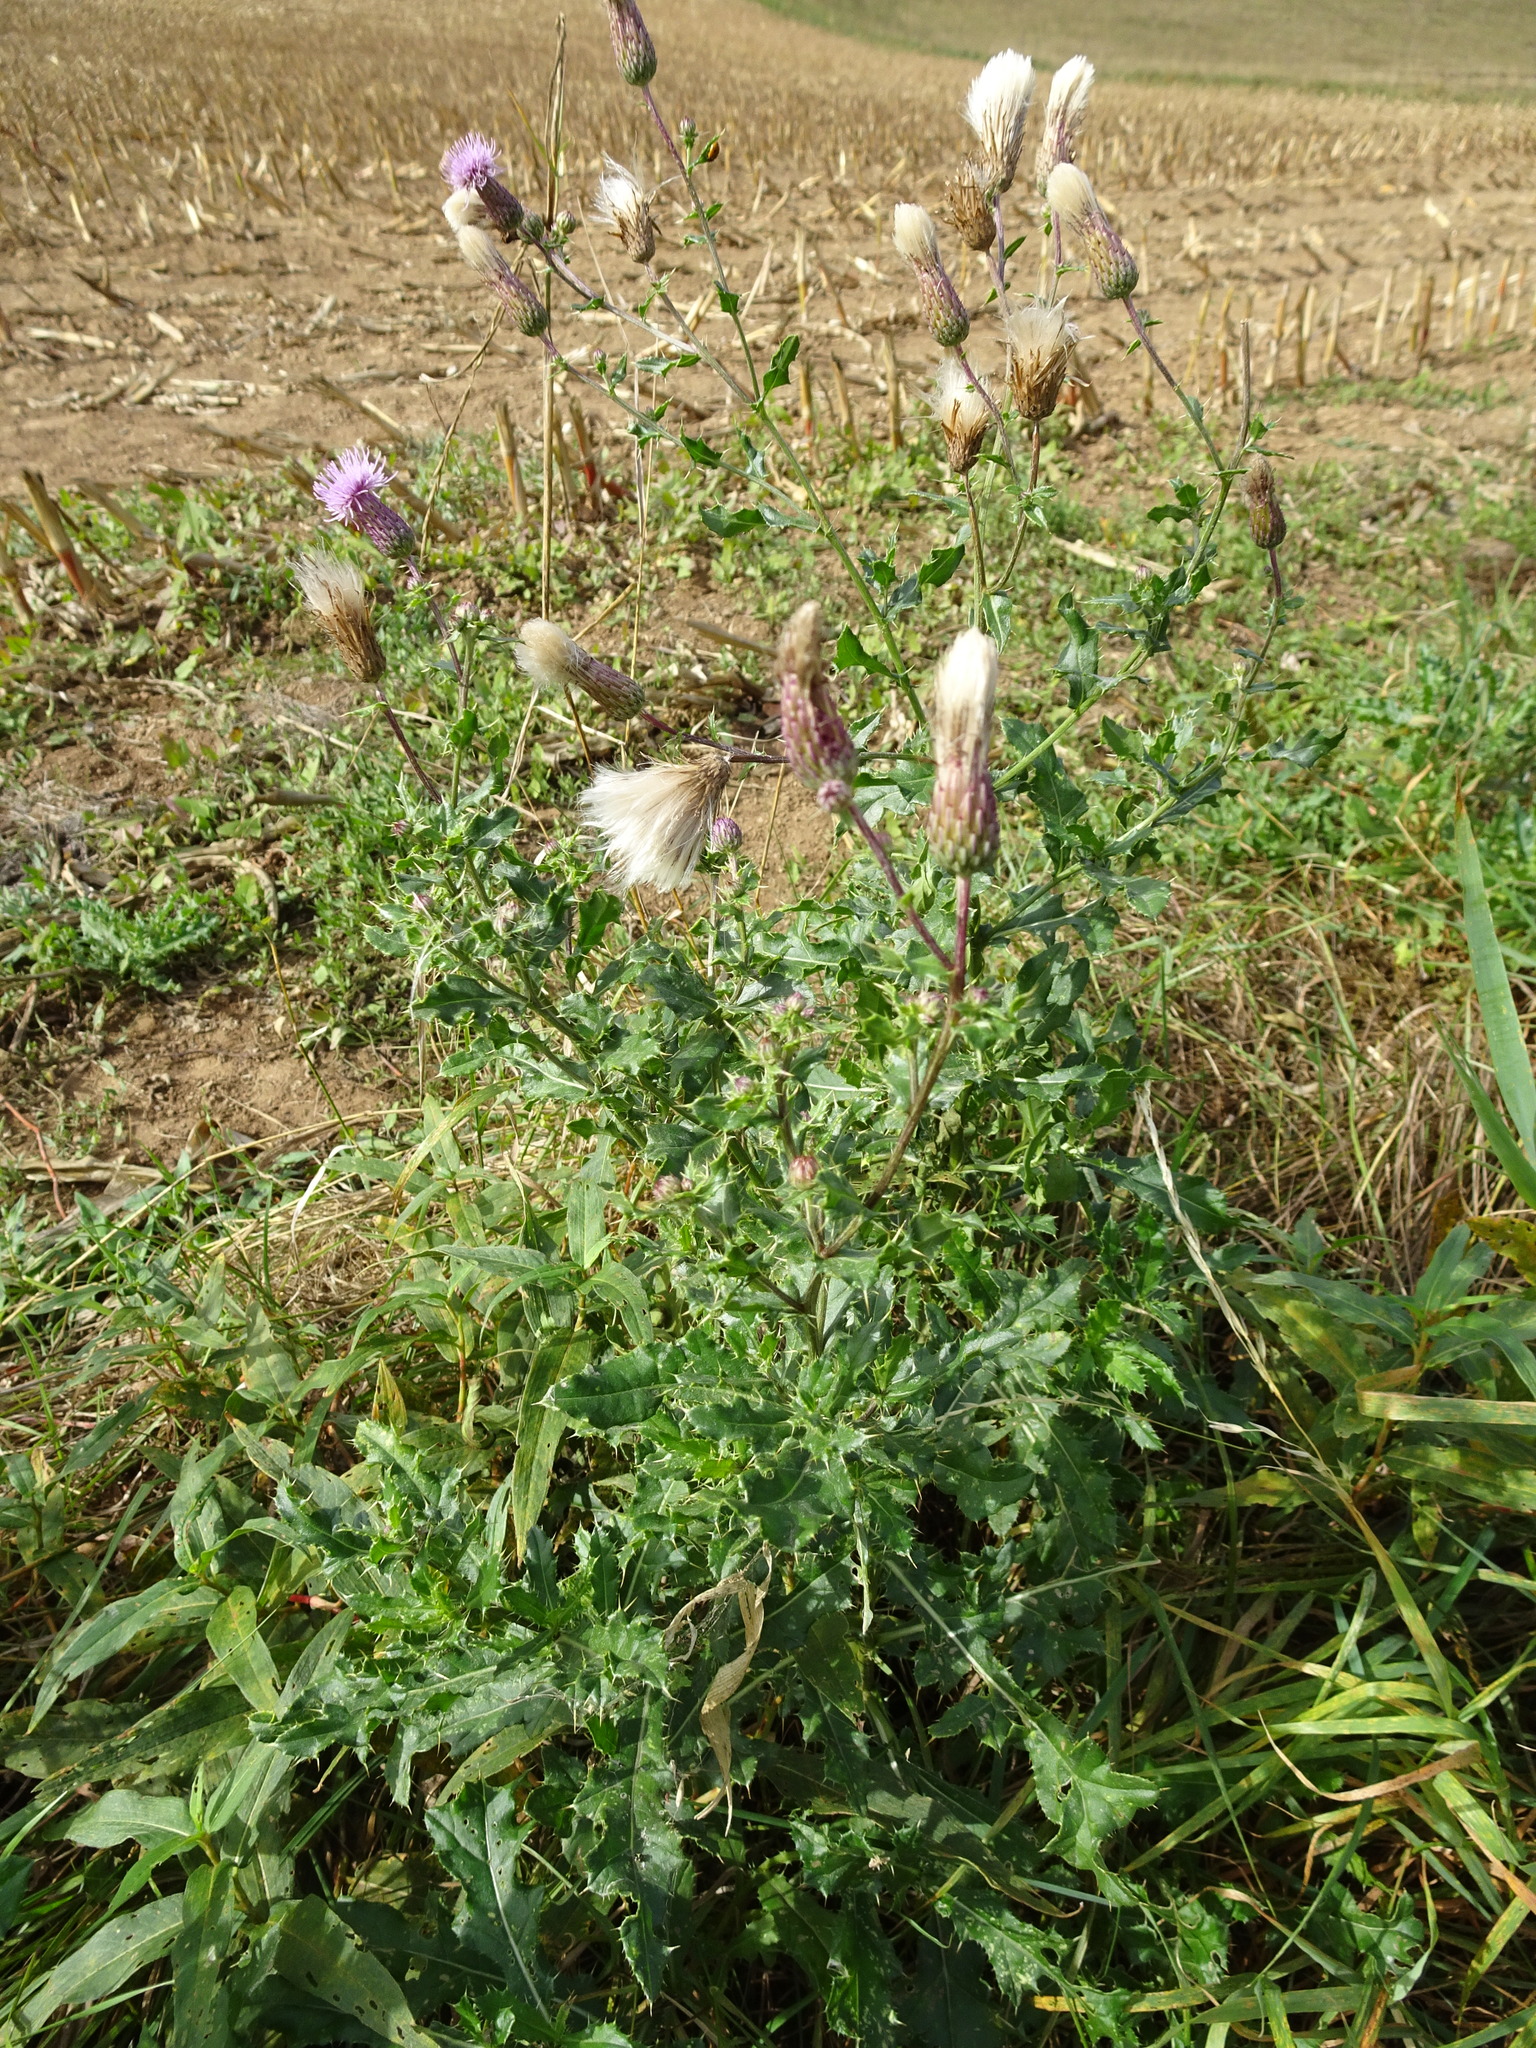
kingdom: Plantae
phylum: Tracheophyta
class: Magnoliopsida
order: Asterales
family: Asteraceae
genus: Cirsium
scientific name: Cirsium arvense
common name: Creeping thistle
